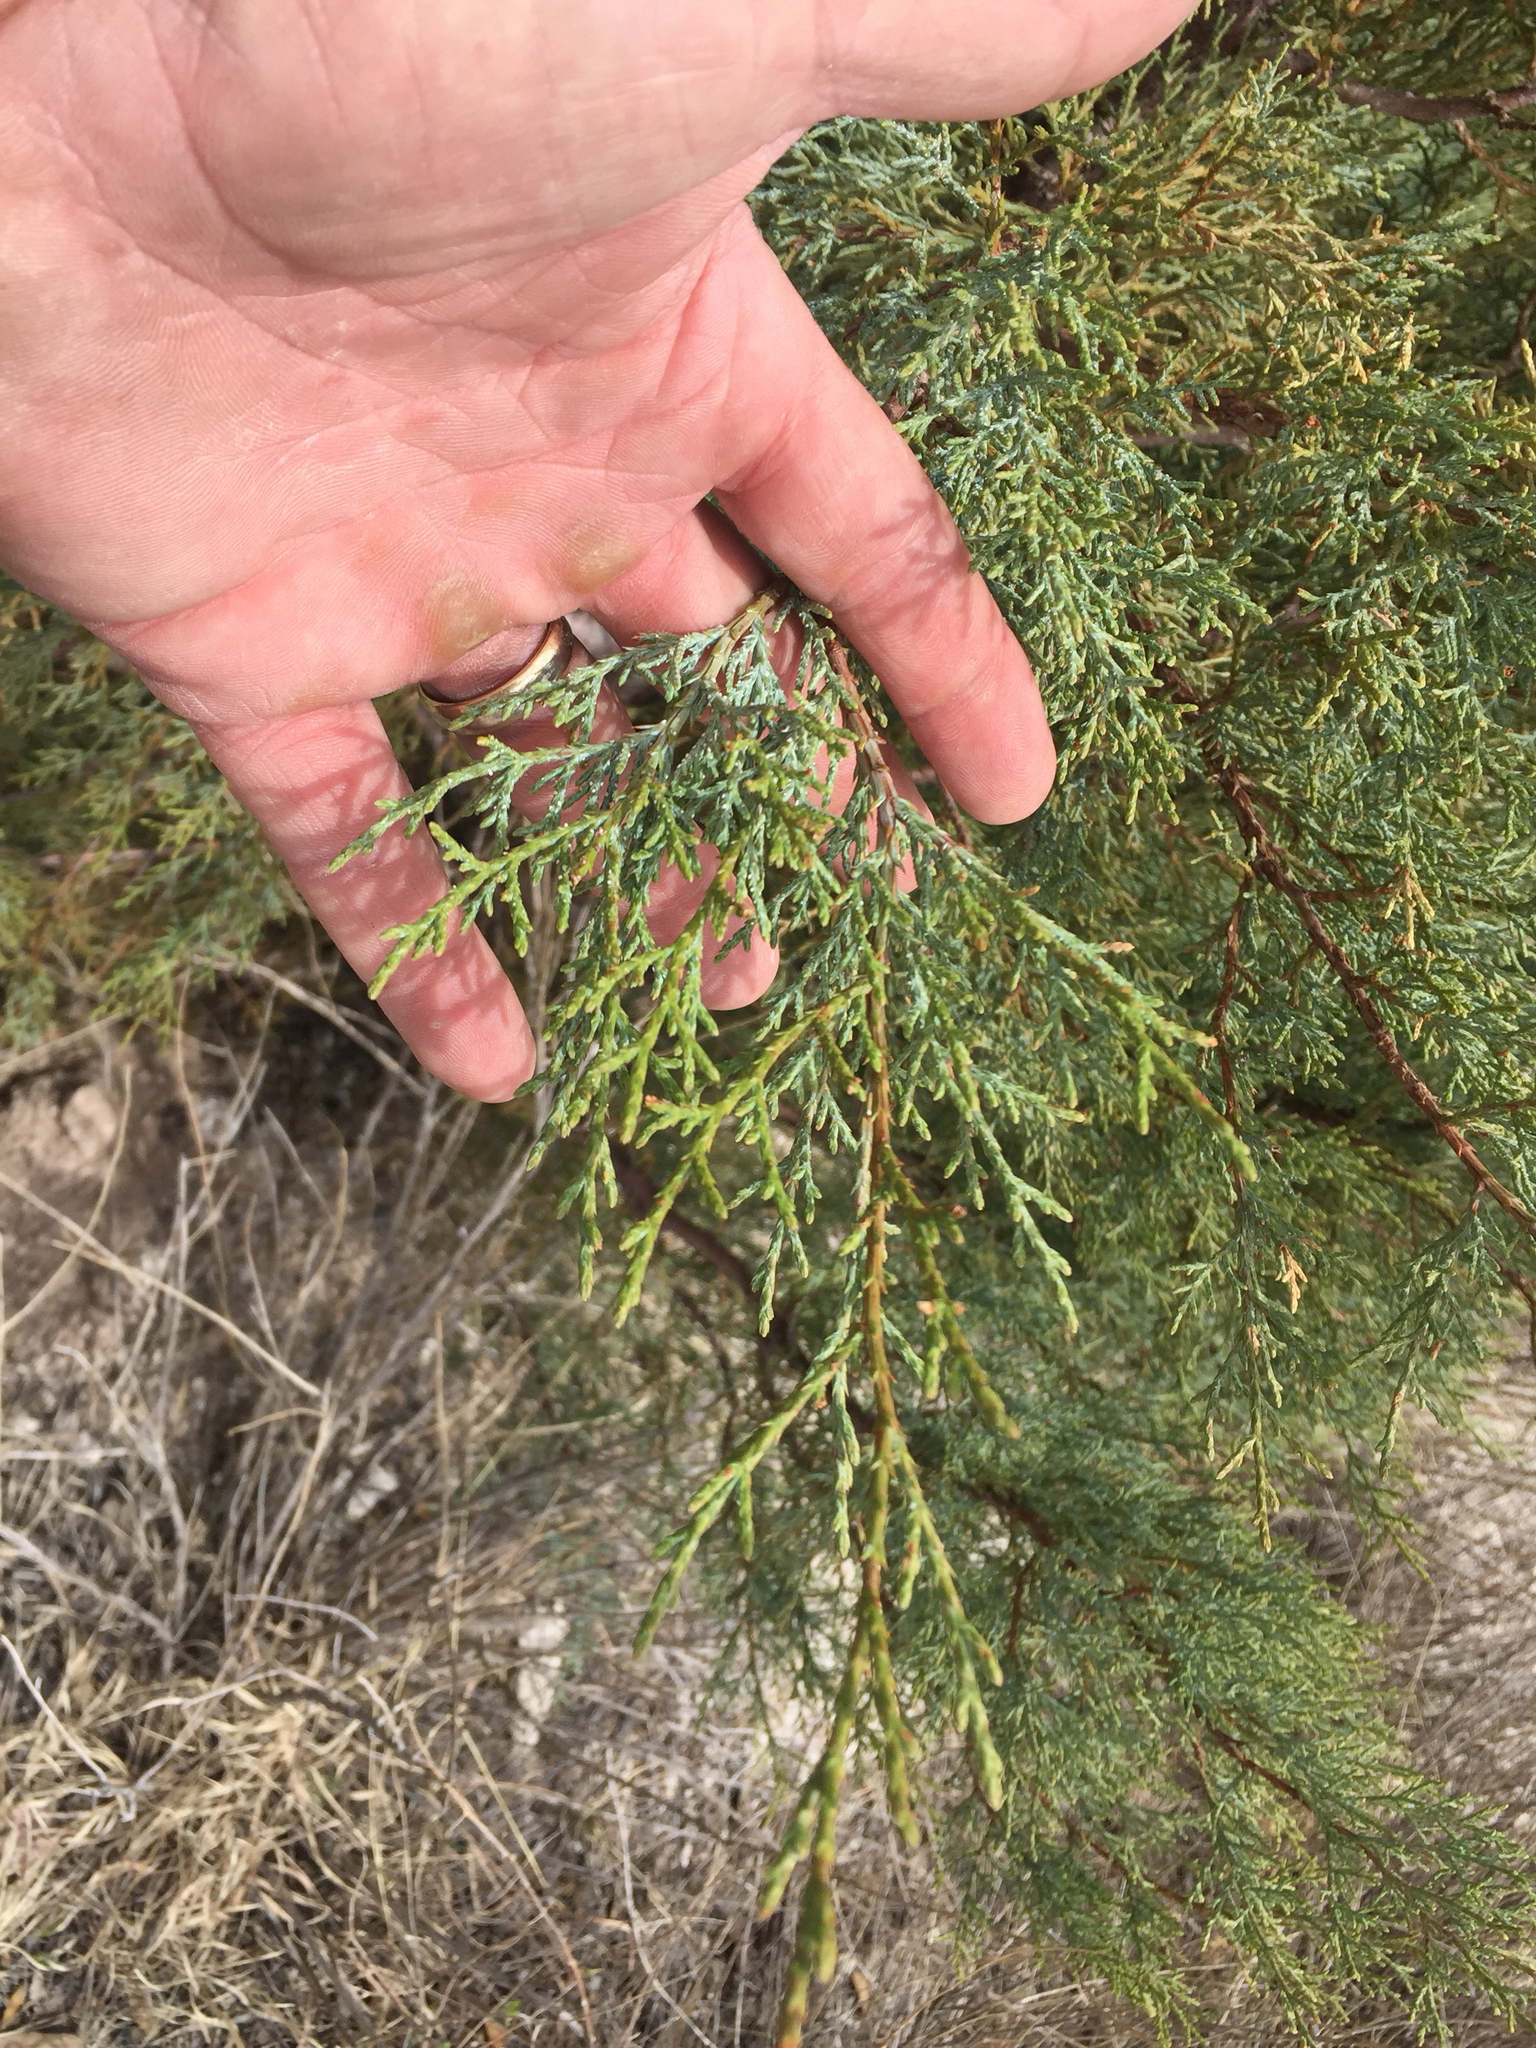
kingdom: Plantae
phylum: Tracheophyta
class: Pinopsida
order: Pinales
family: Cupressaceae
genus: Juniperus
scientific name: Juniperus deppeana
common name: Alligator juniper
